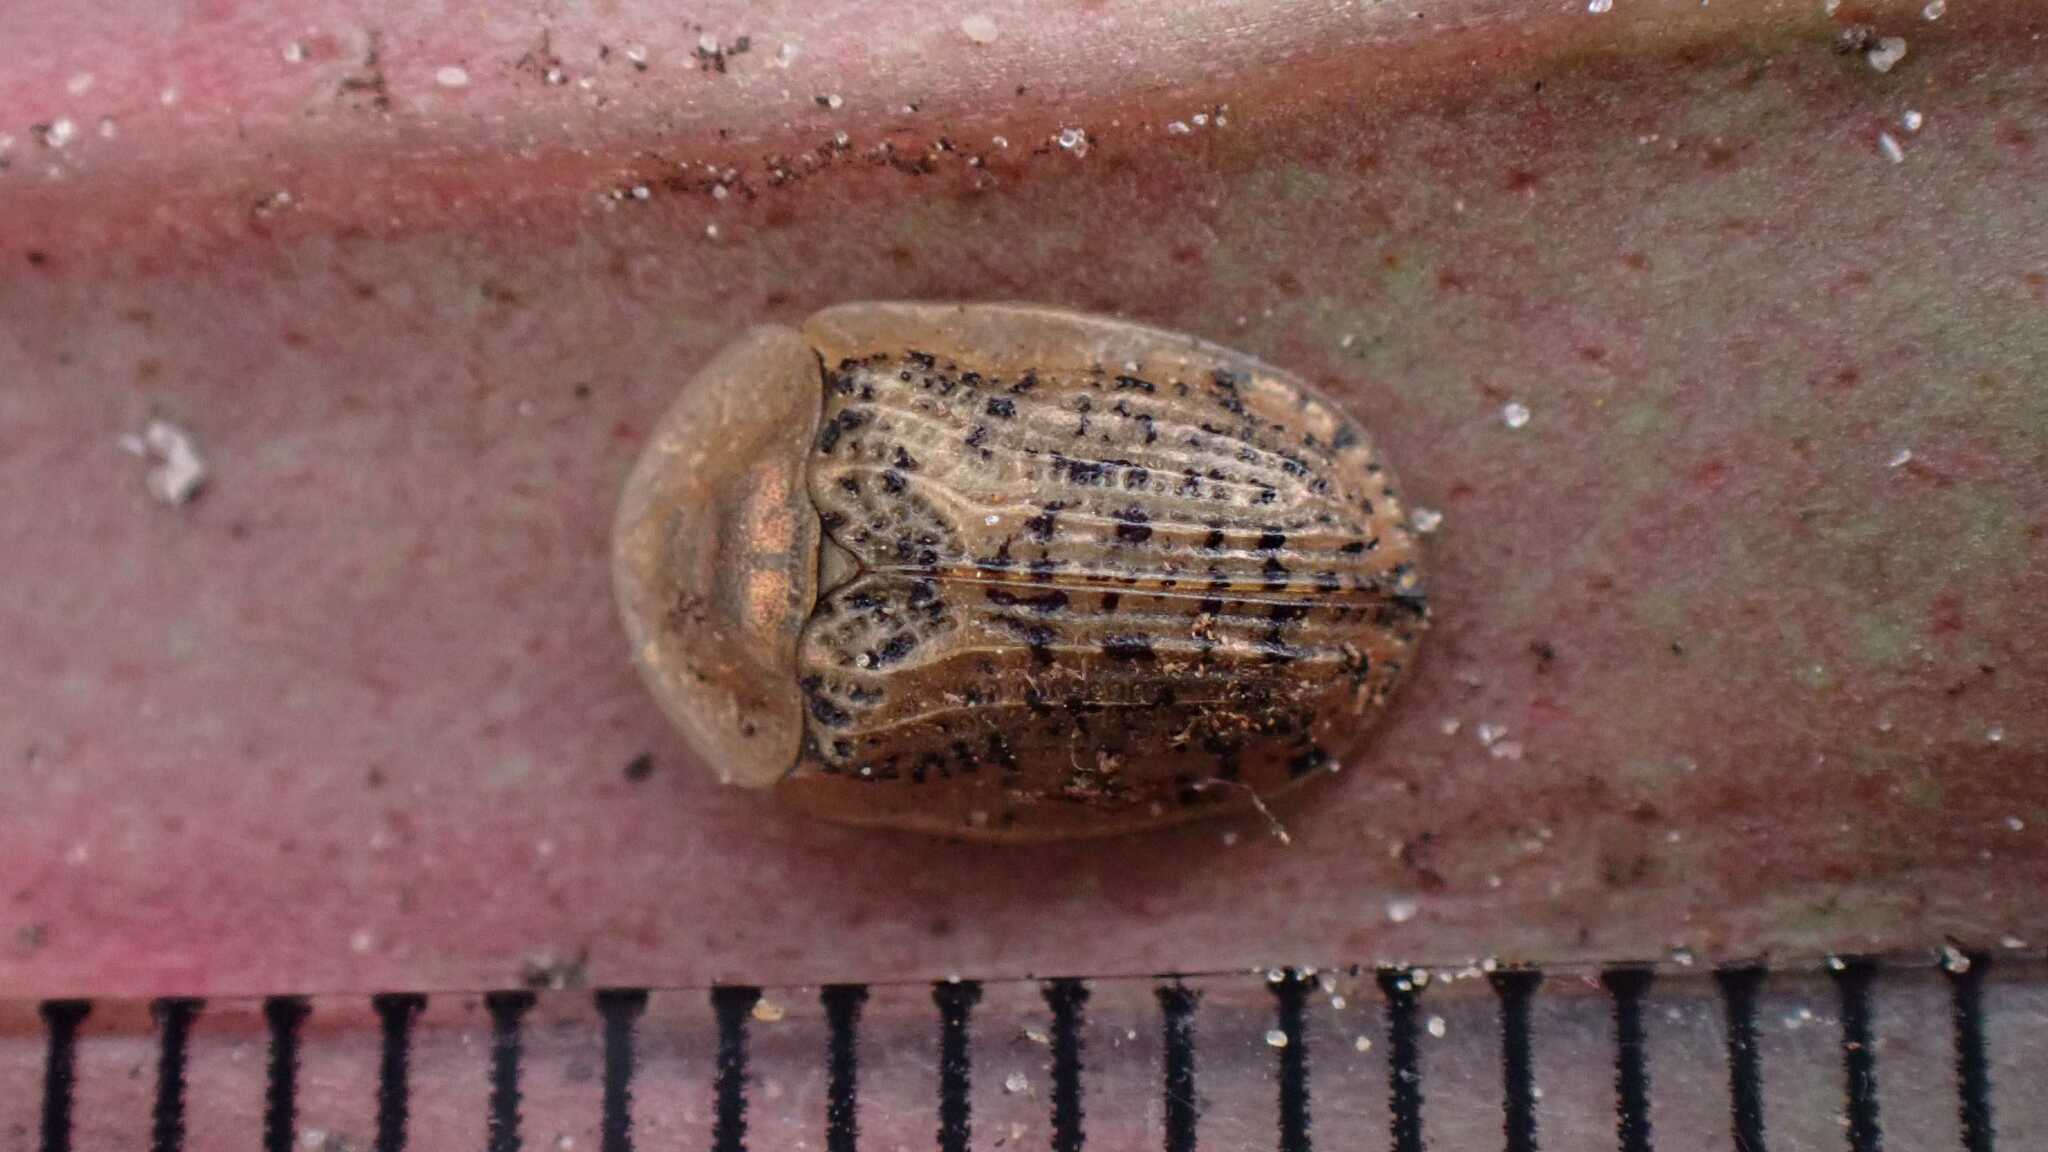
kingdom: Animalia
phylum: Arthropoda
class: Insecta
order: Coleoptera
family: Chrysomelidae
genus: Cassida
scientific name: Cassida nebulosa
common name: Beet tortoise beetle
